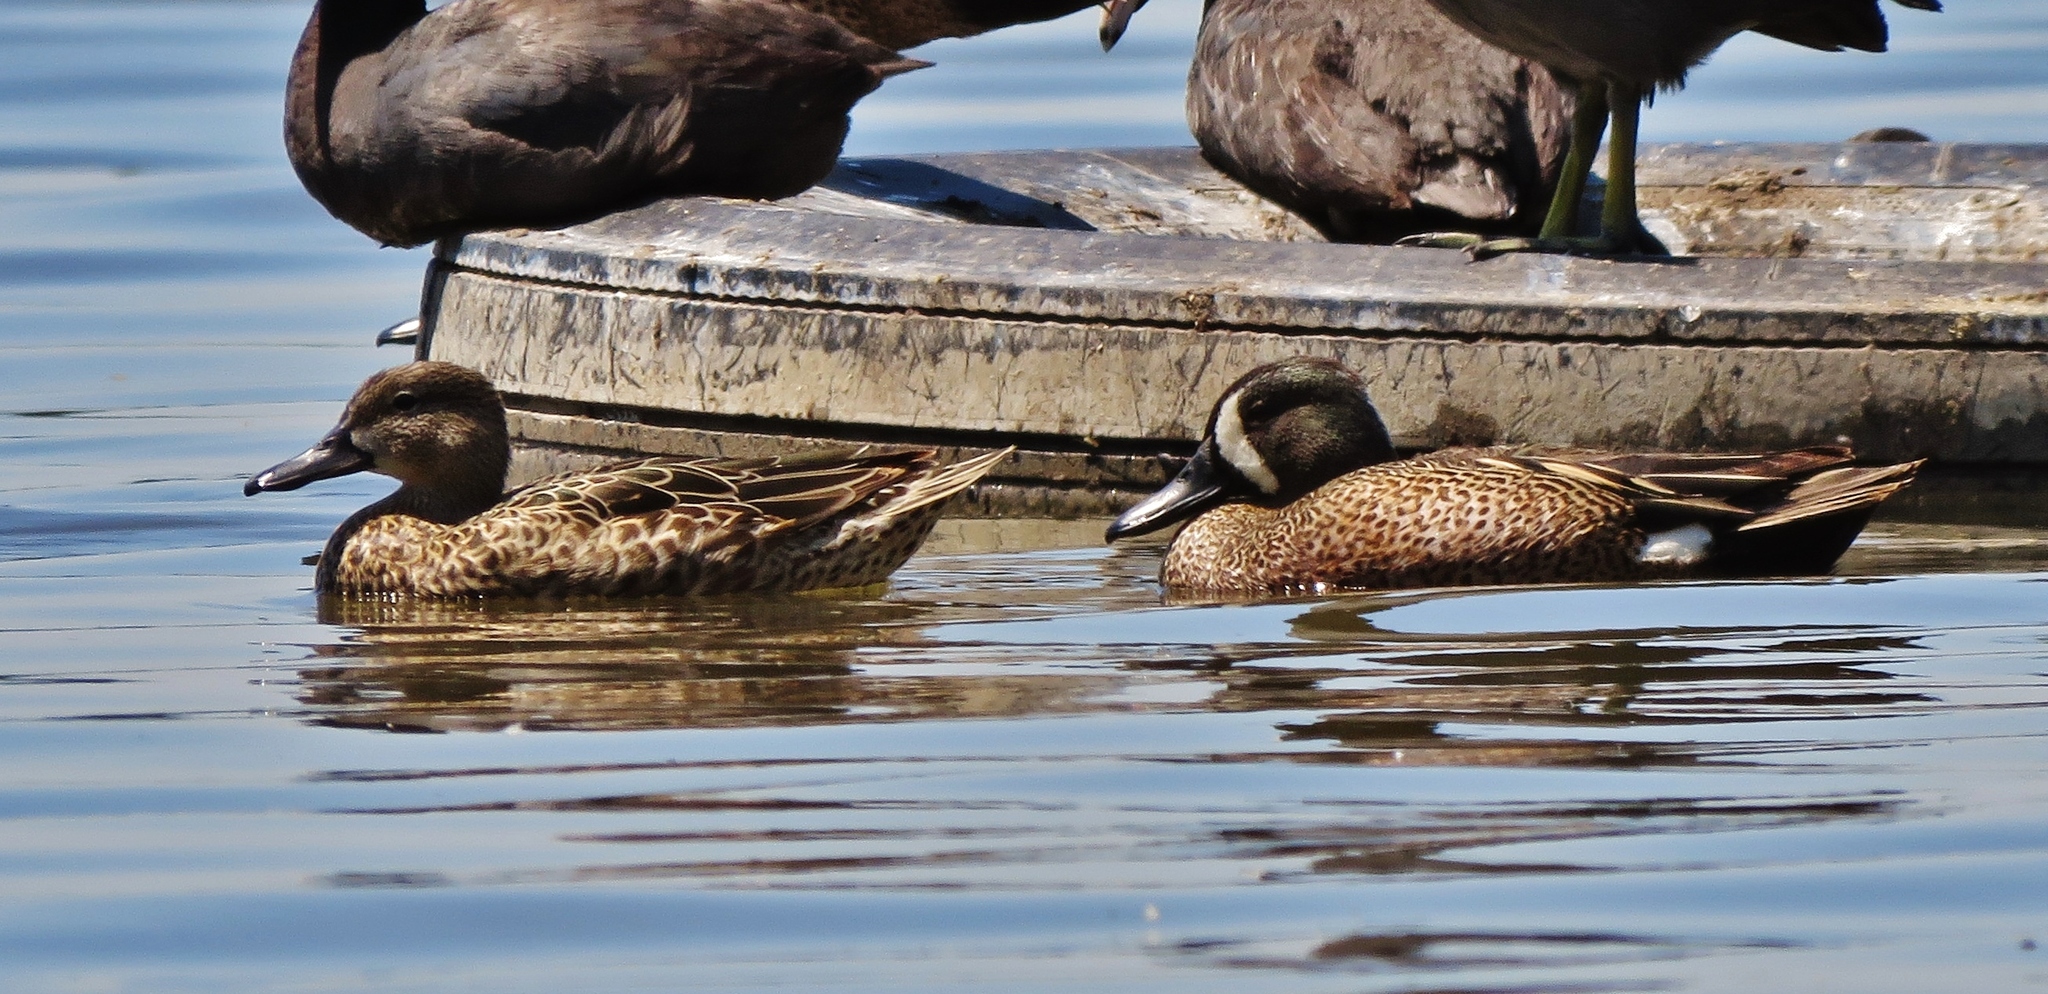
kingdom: Animalia
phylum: Chordata
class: Aves
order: Anseriformes
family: Anatidae
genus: Spatula
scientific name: Spatula discors
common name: Blue-winged teal
